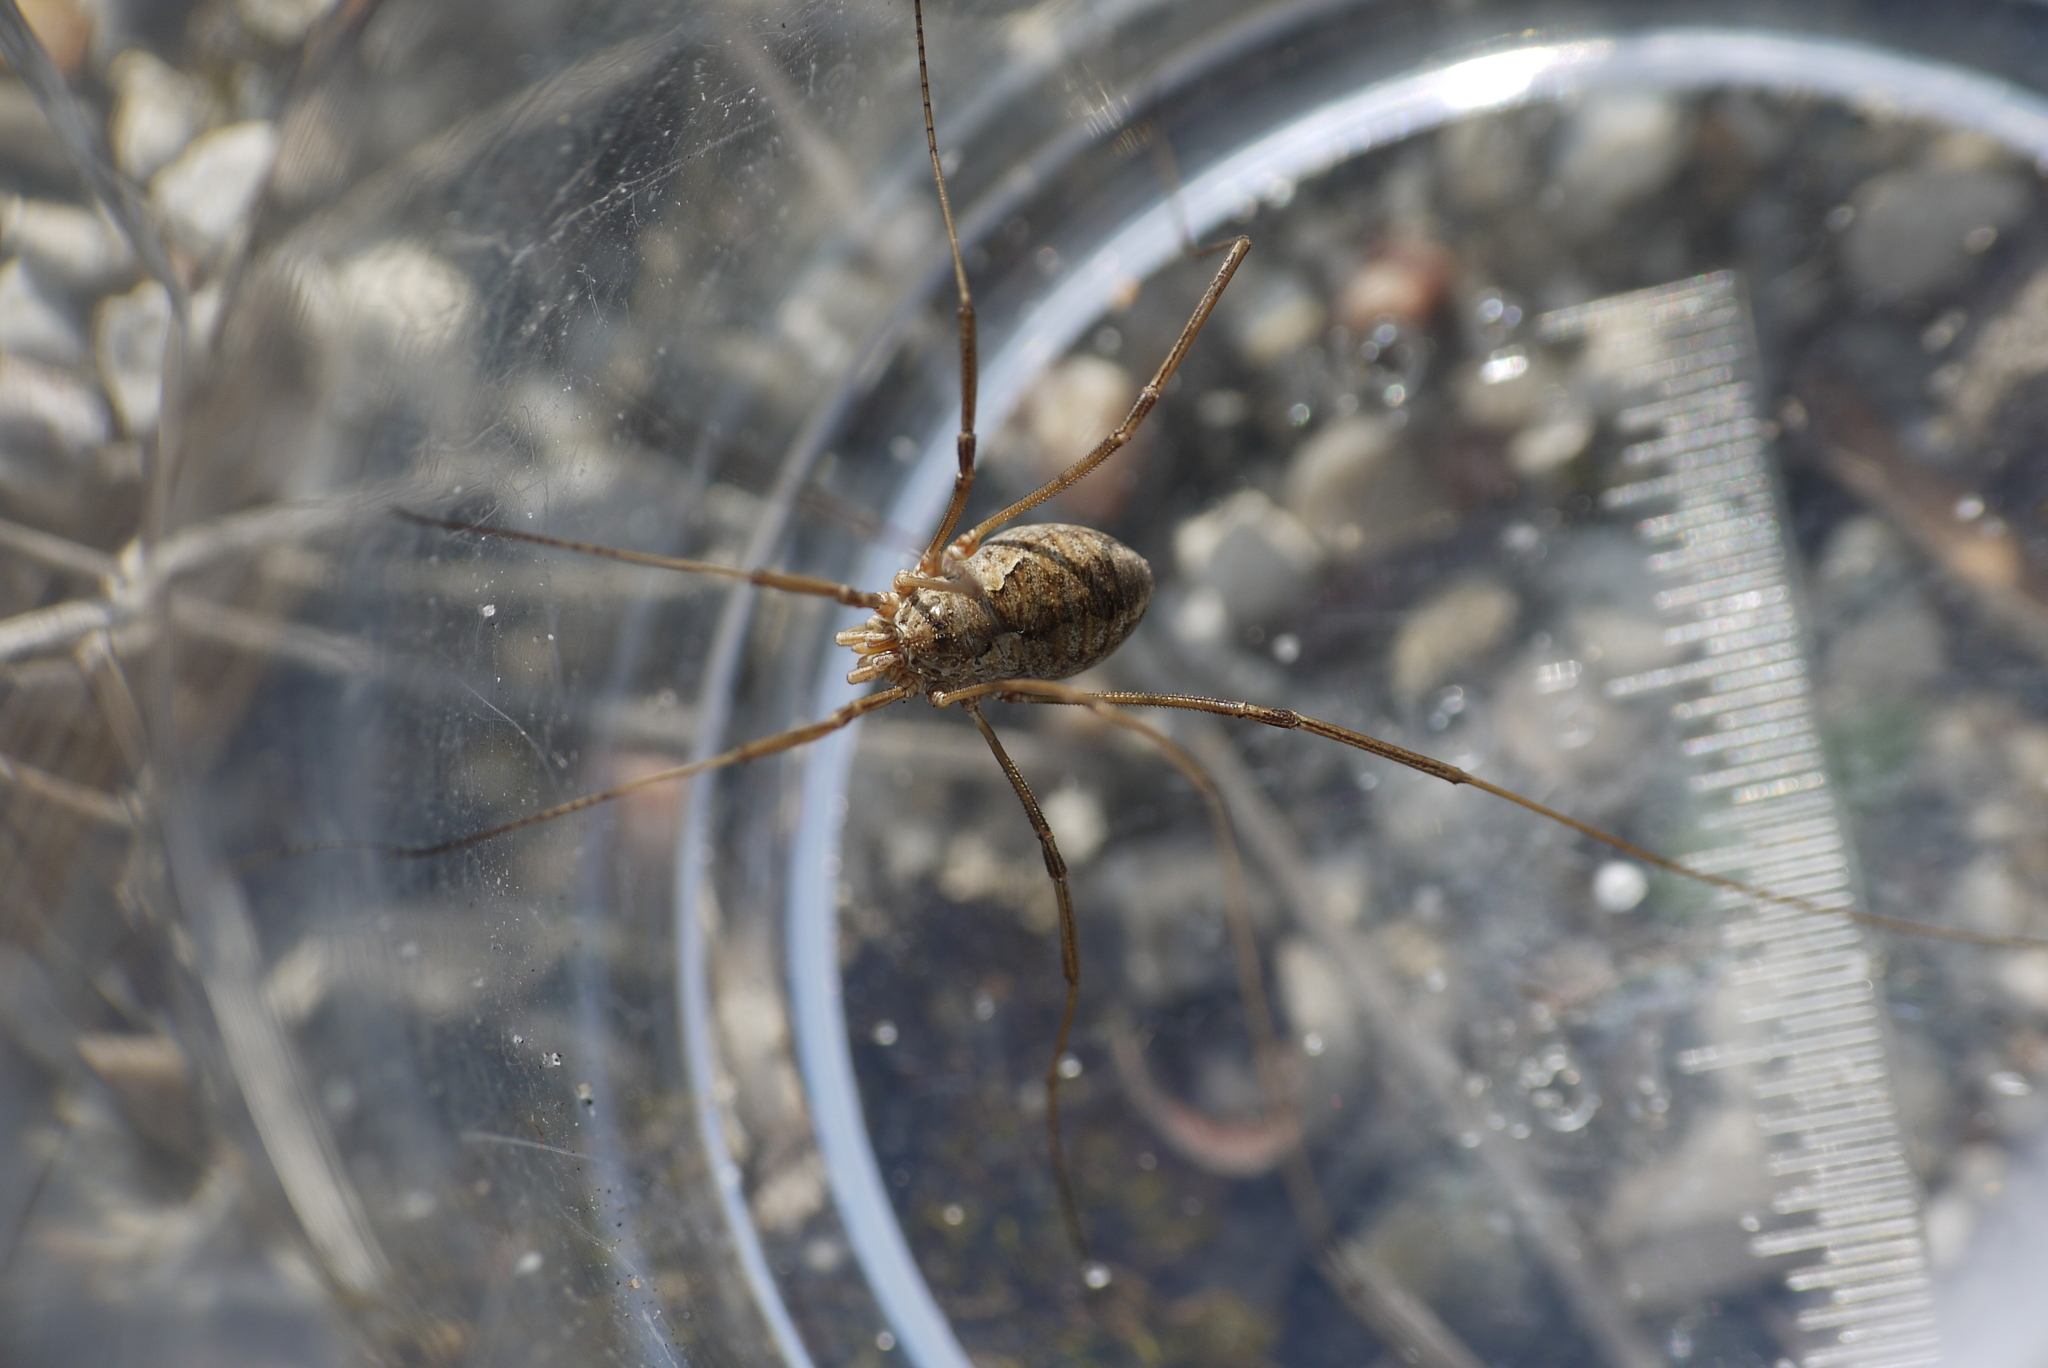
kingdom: Animalia
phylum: Arthropoda
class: Arachnida
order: Opiliones
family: Phalangiidae
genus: Phalangium
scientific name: Phalangium opilio
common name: Daddy longleg
